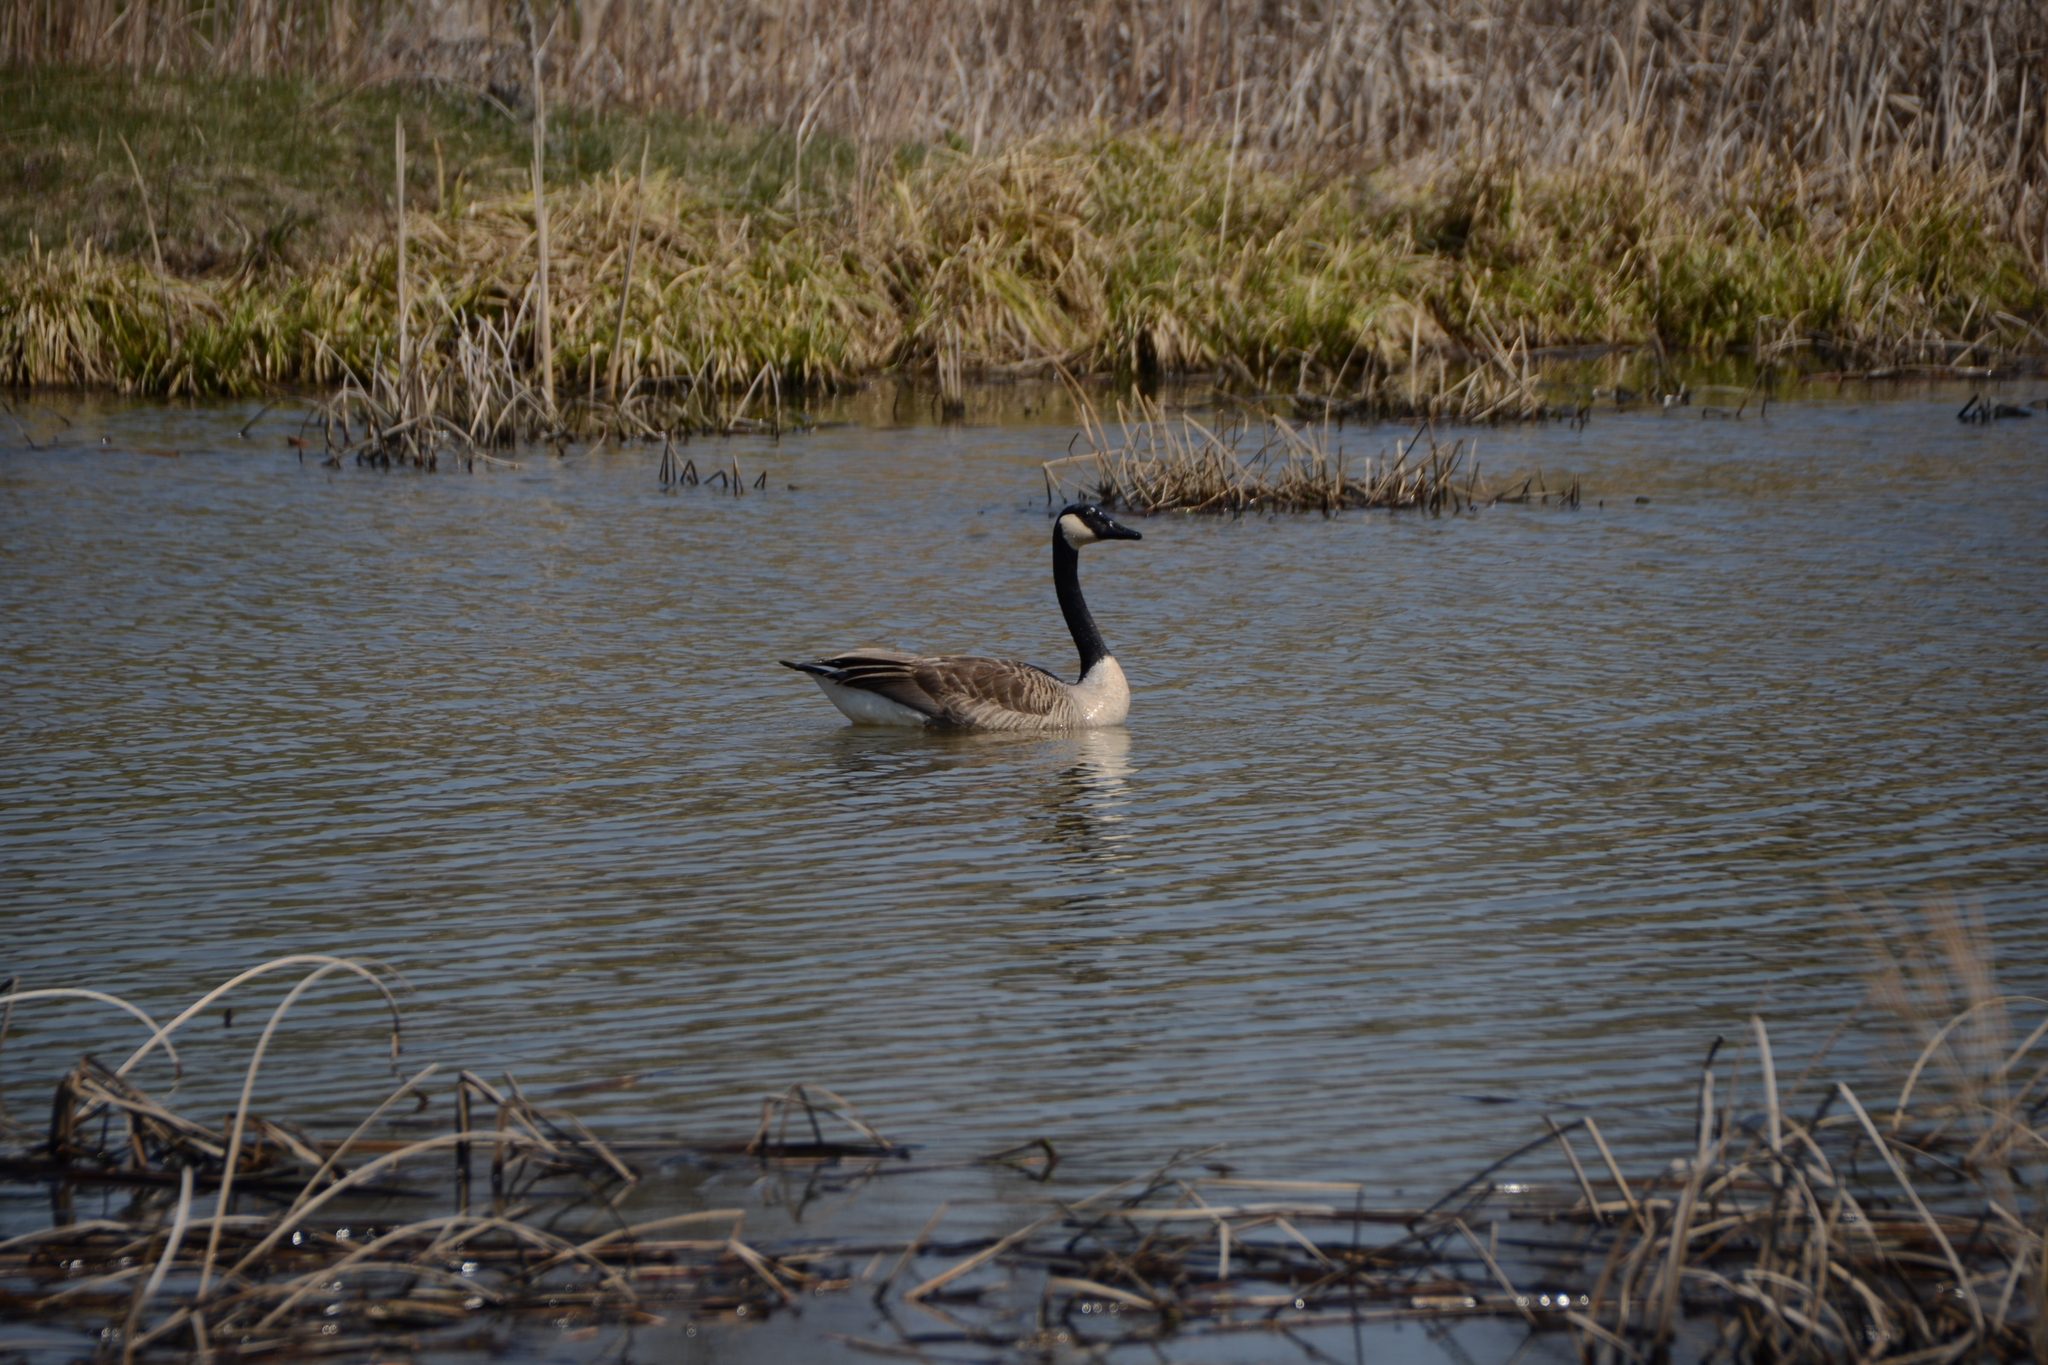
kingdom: Animalia
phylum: Chordata
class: Aves
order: Anseriformes
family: Anatidae
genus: Branta
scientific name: Branta canadensis
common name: Canada goose
